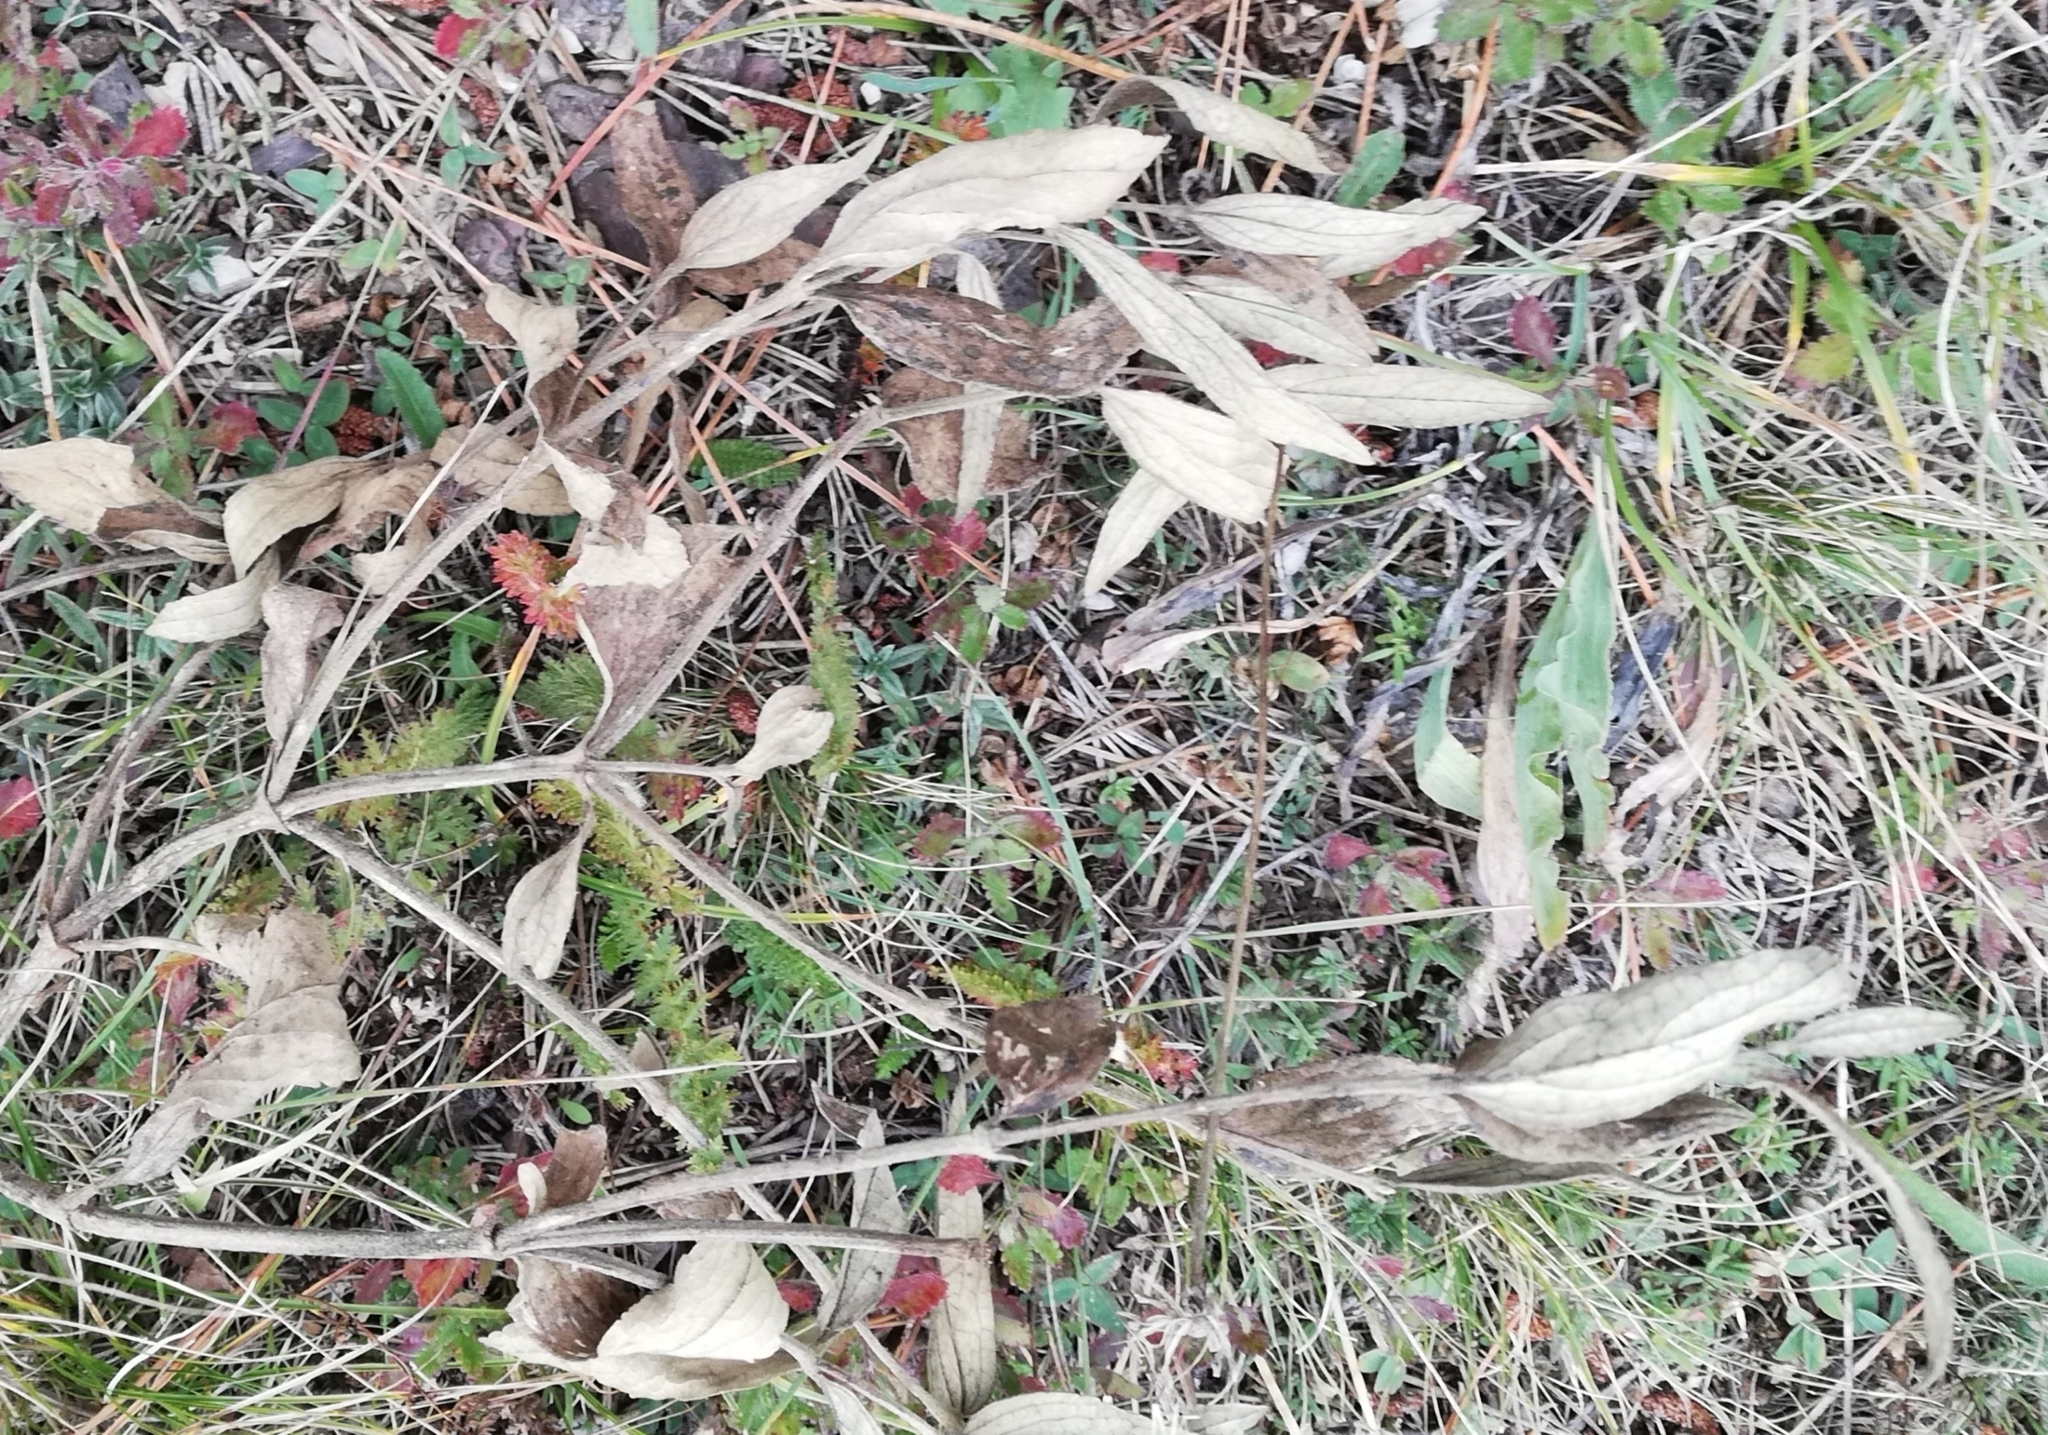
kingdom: Plantae
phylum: Tracheophyta
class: Magnoliopsida
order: Lamiales
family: Lamiaceae
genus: Phlomis
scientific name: Phlomis herba-venti
